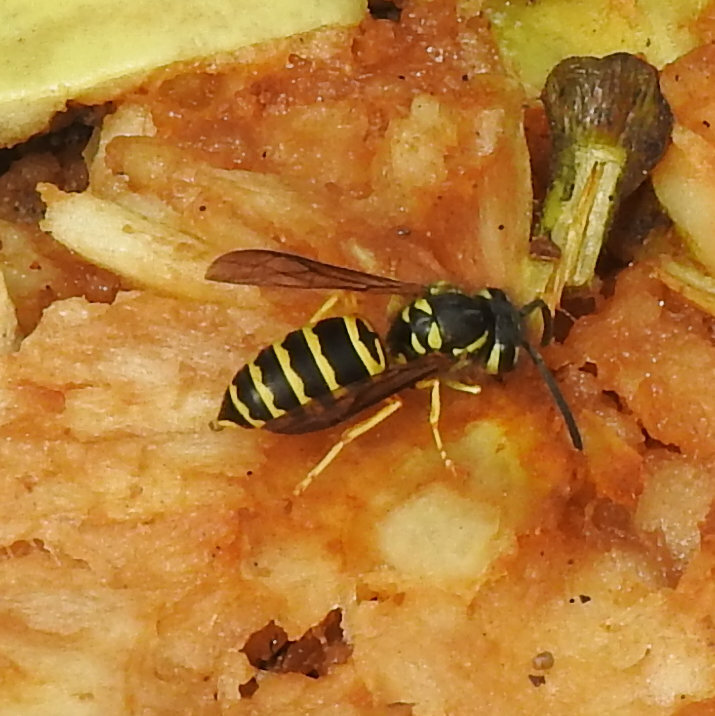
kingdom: Animalia
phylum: Arthropoda
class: Insecta
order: Hymenoptera
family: Vespidae
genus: Vespula
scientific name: Vespula maculifrons
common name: Eastern yellowjacket
